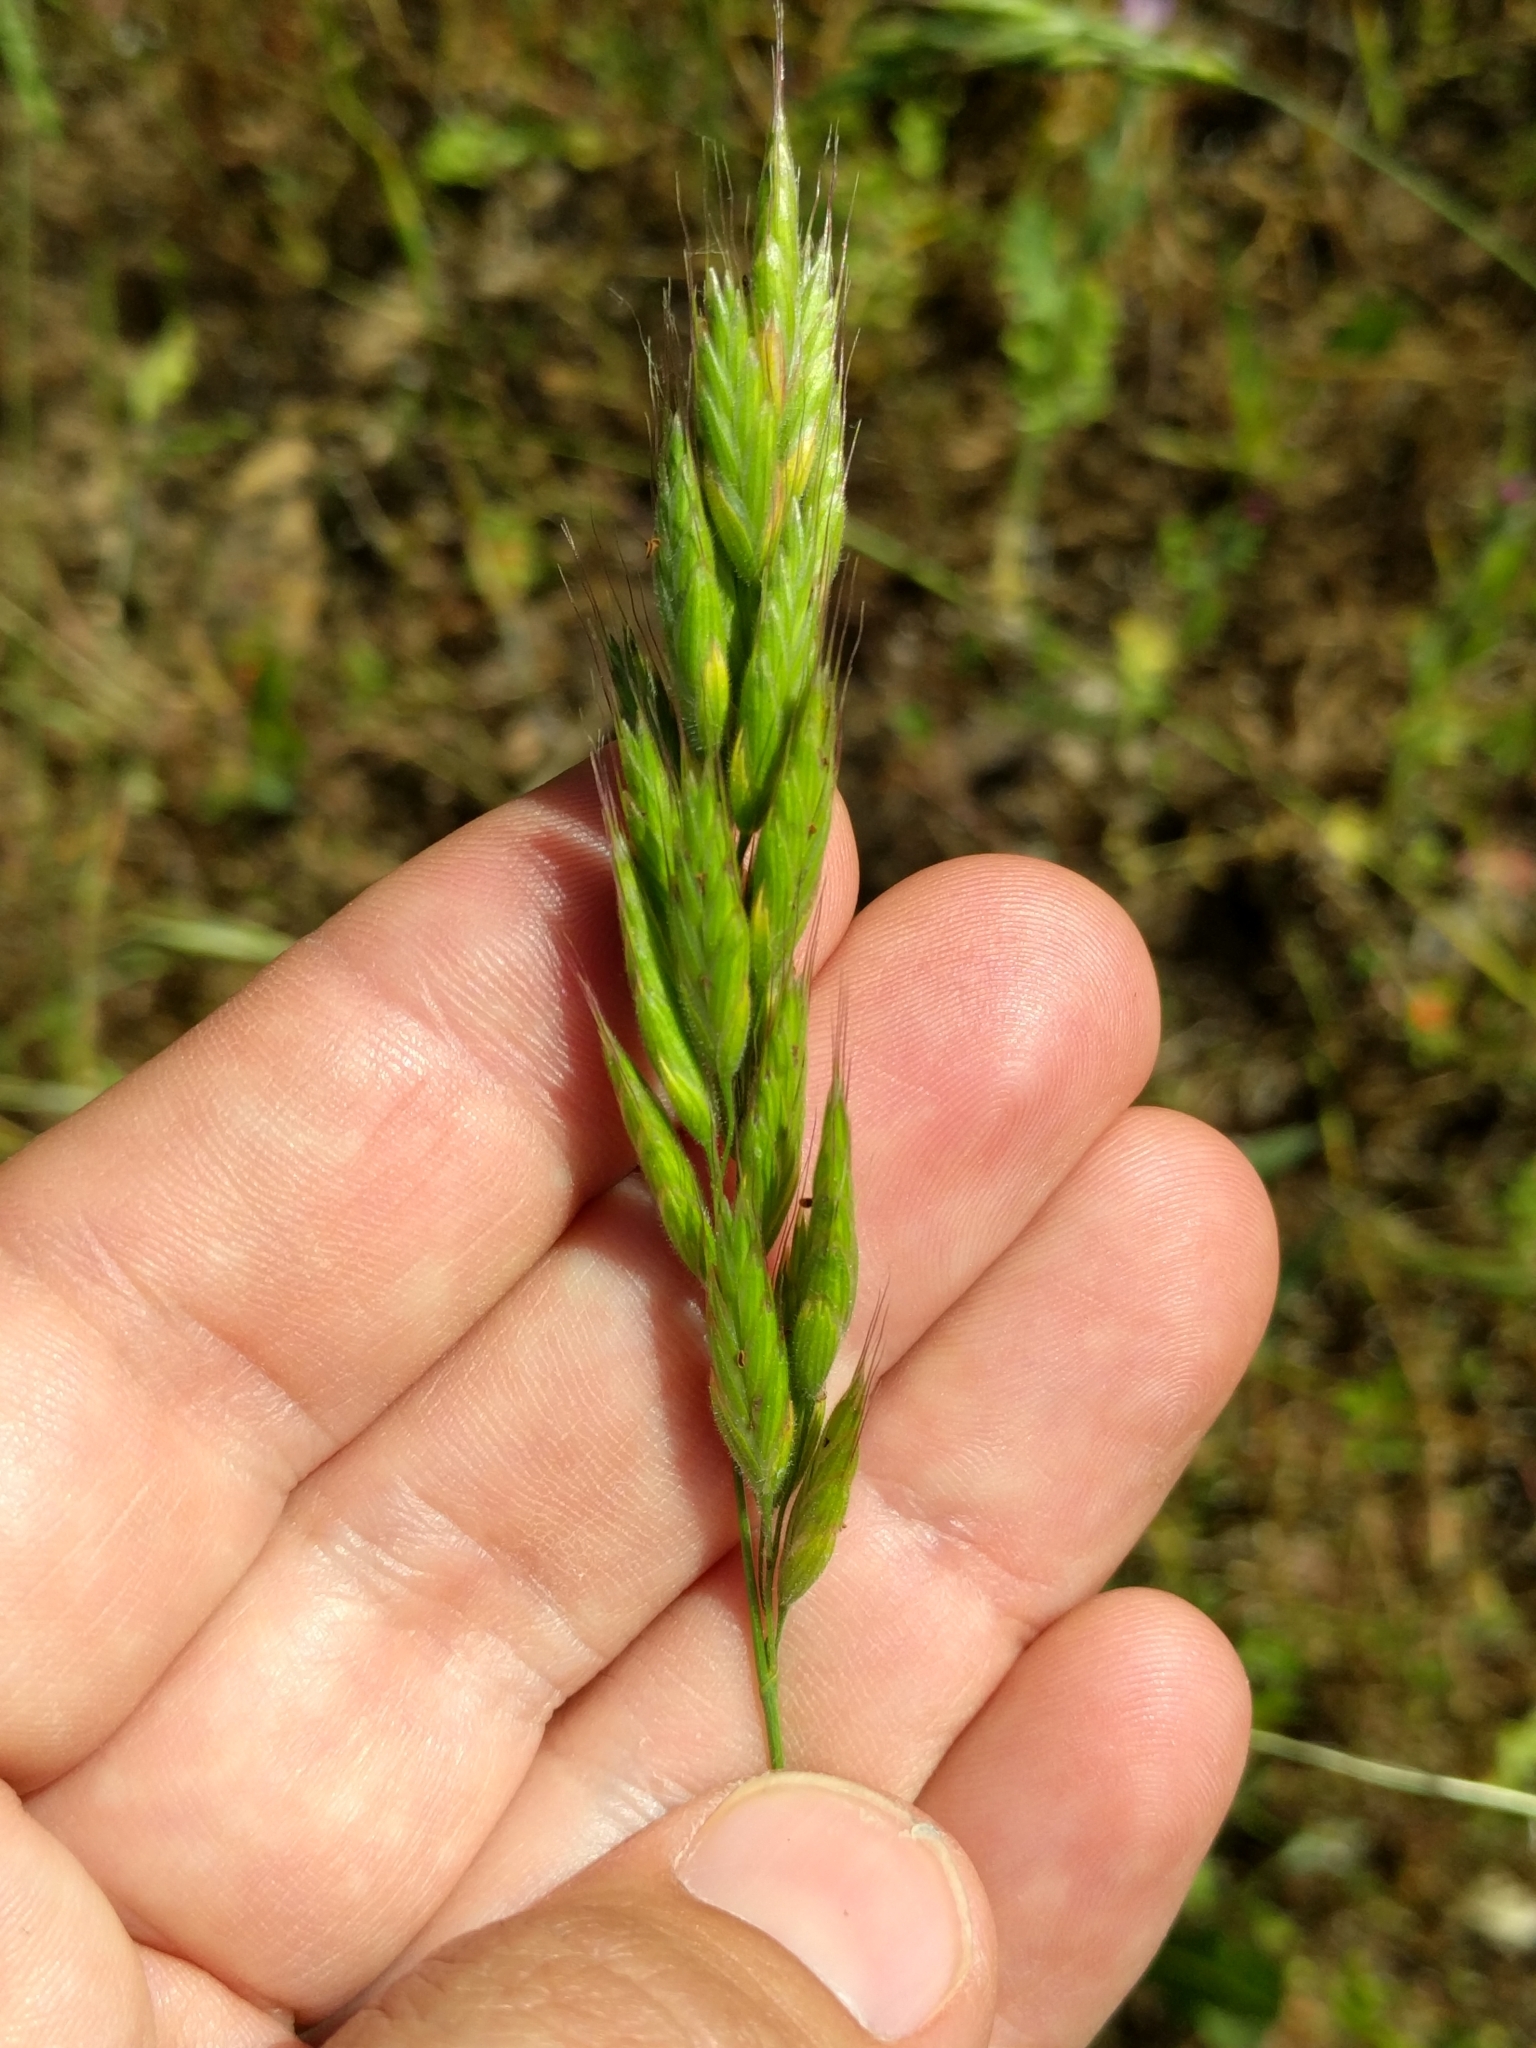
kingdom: Plantae
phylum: Tracheophyta
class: Liliopsida
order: Poales
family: Poaceae
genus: Bromus
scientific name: Bromus hordeaceus
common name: Soft brome
